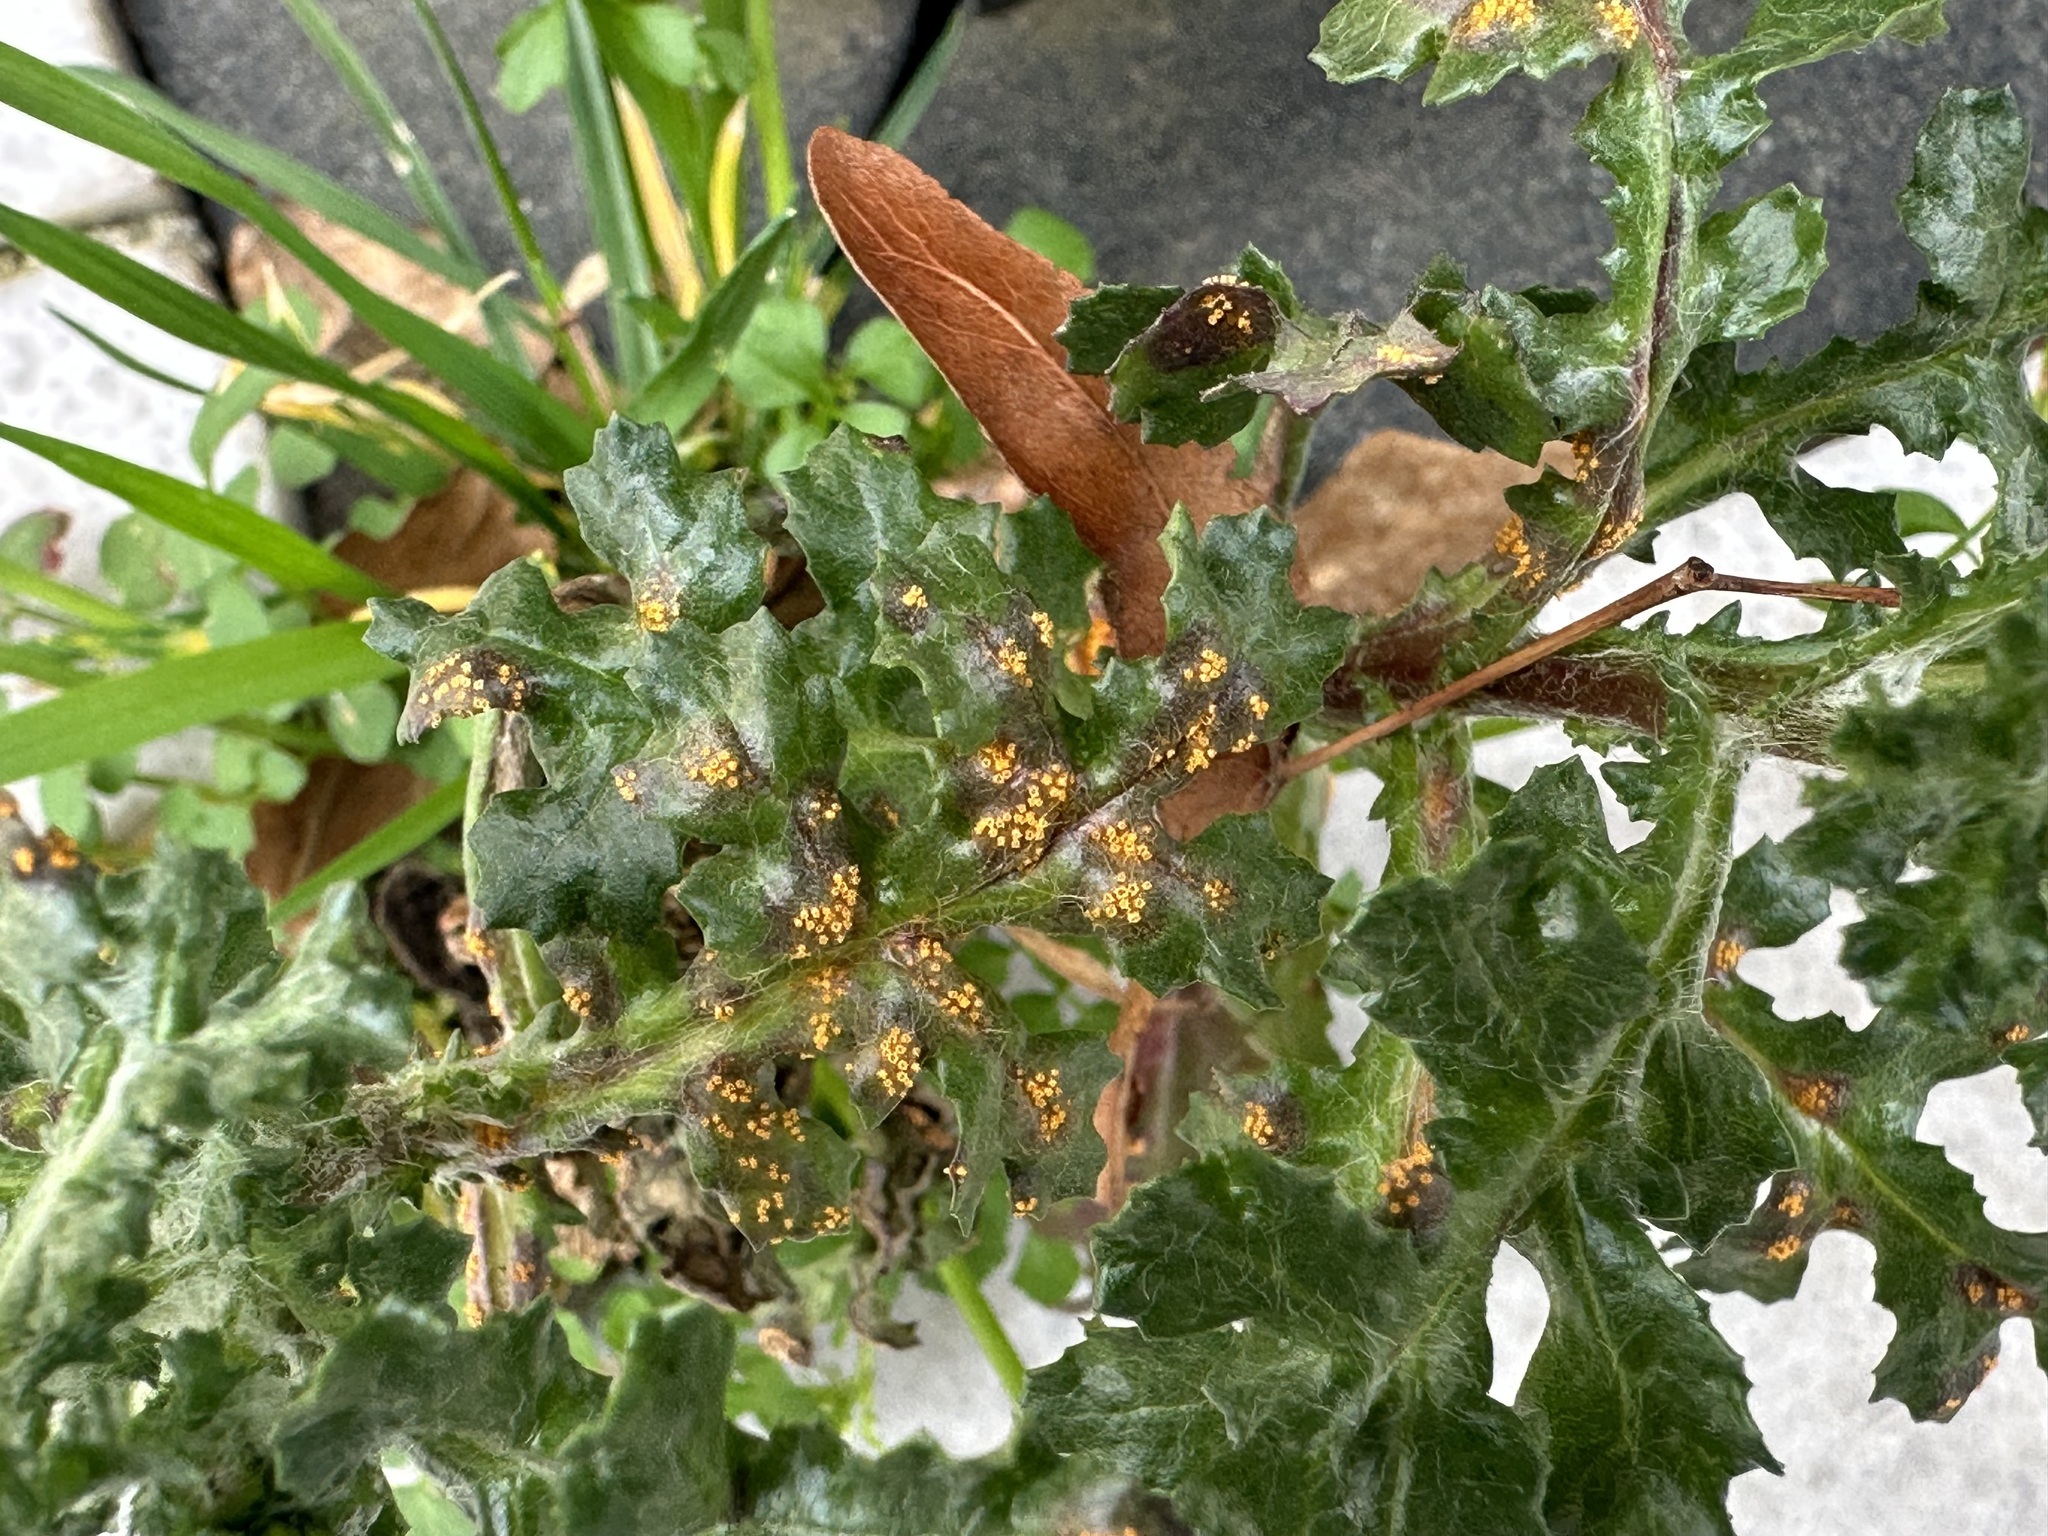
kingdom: Fungi
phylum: Basidiomycota
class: Pucciniomycetes
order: Pucciniales
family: Pucciniaceae
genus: Puccinia
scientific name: Puccinia lagenophorae
